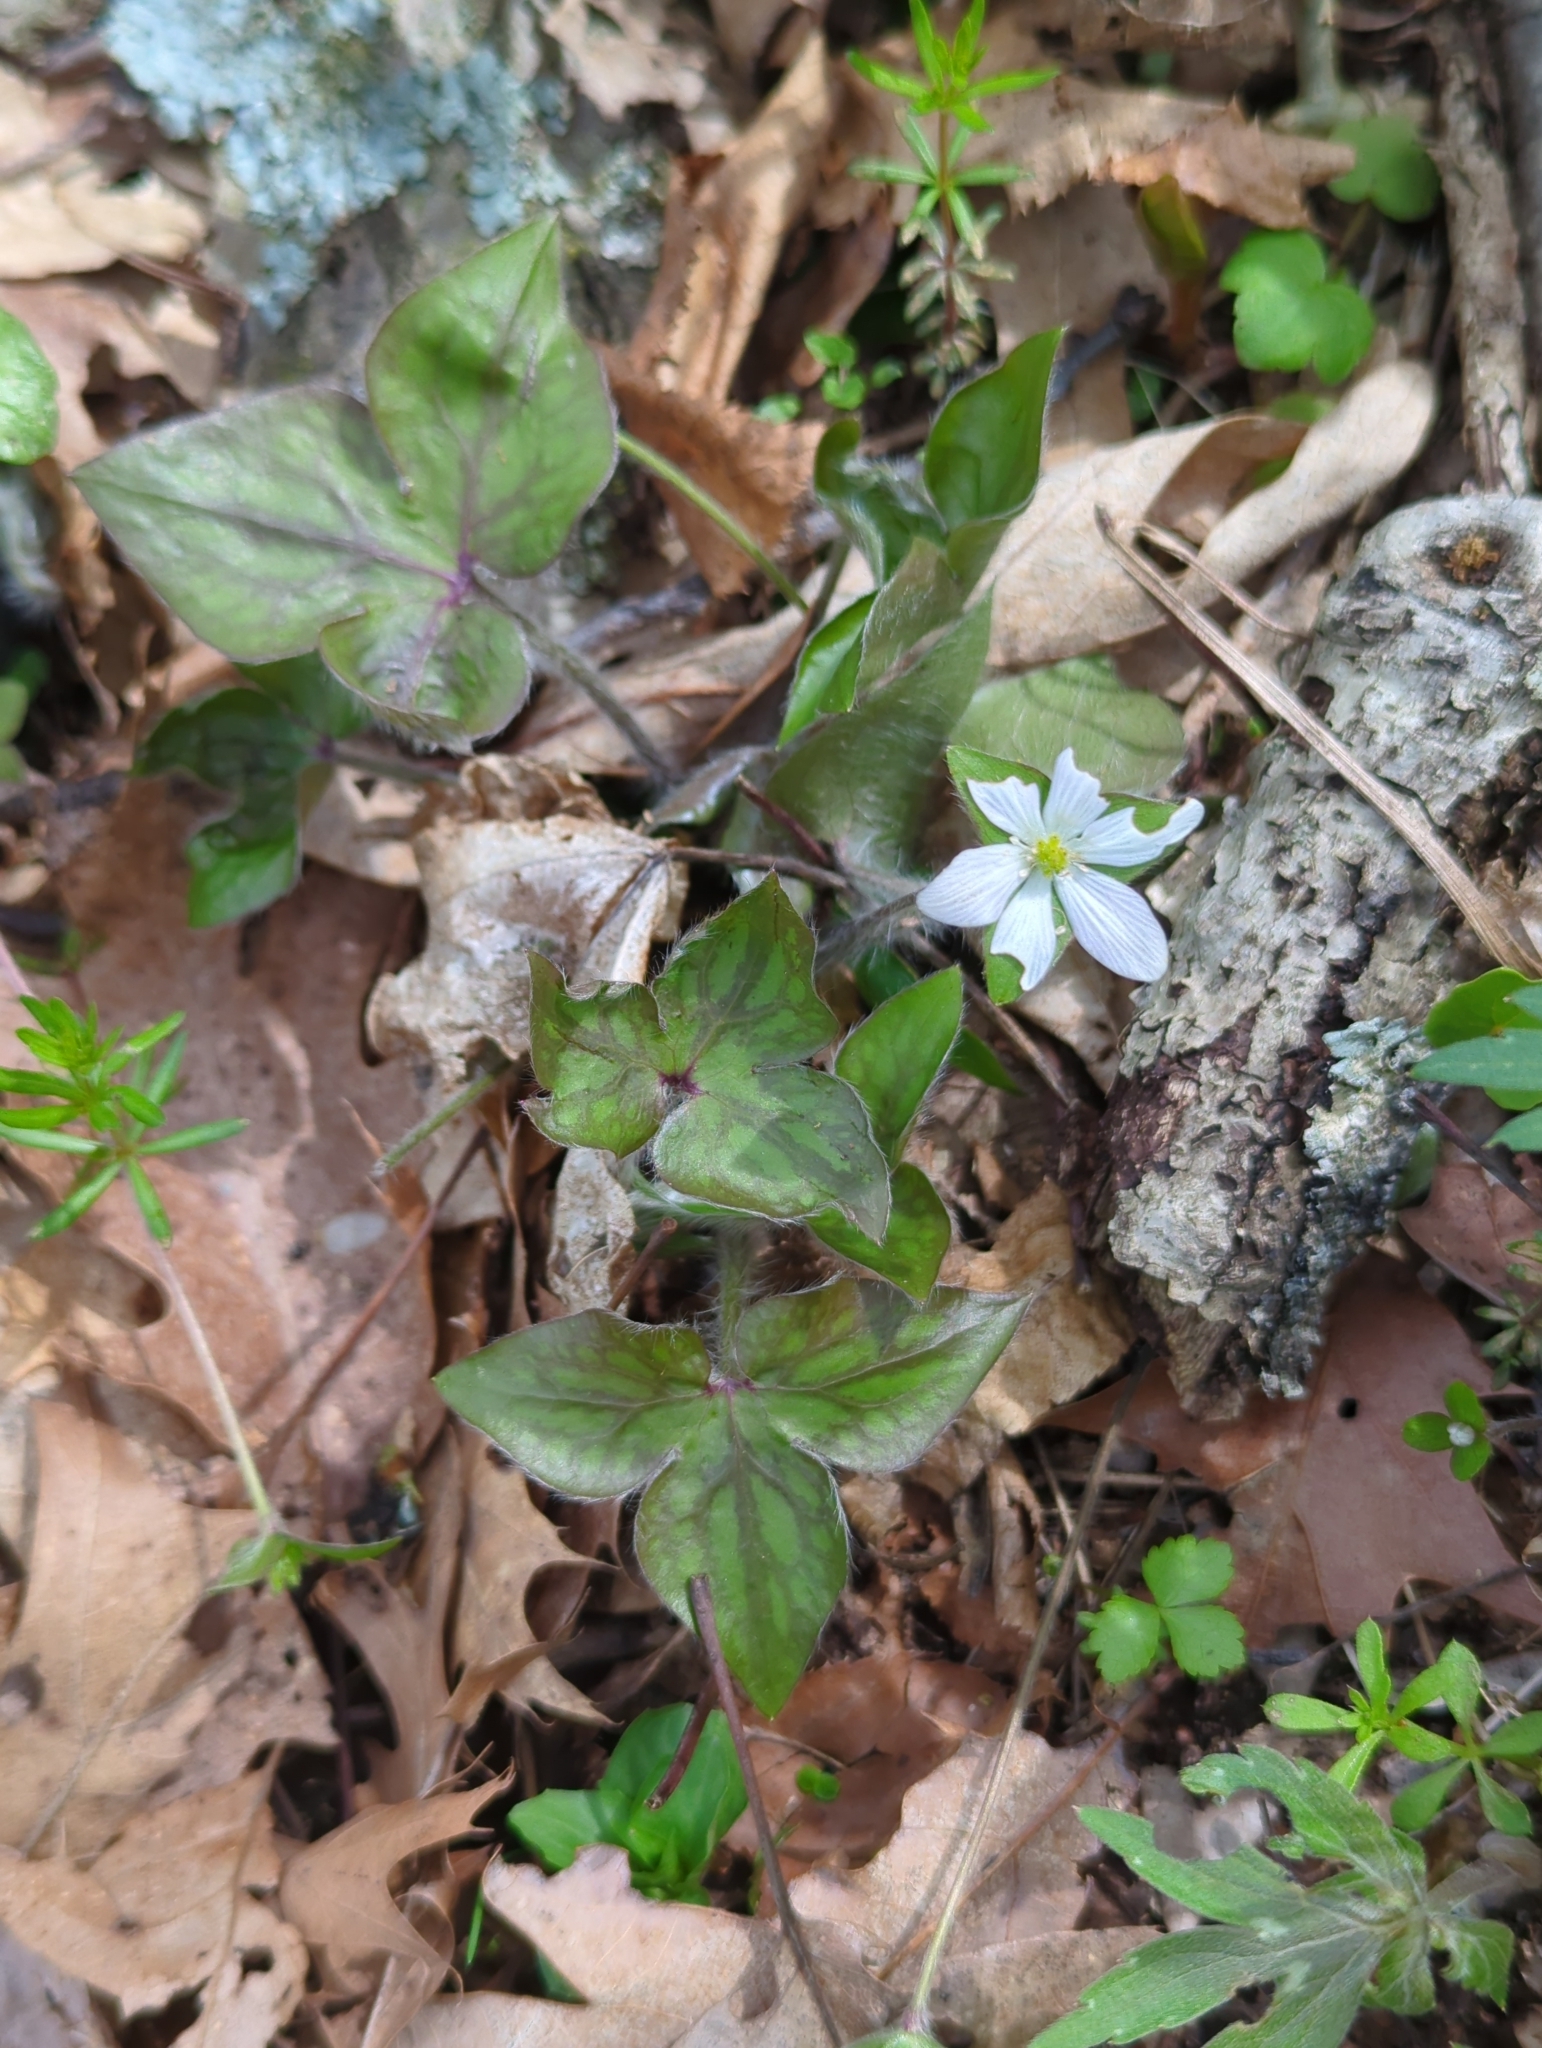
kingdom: Plantae
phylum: Tracheophyta
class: Magnoliopsida
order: Ranunculales
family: Ranunculaceae
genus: Hepatica
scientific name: Hepatica acutiloba
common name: Sharp-lobed hepatica
